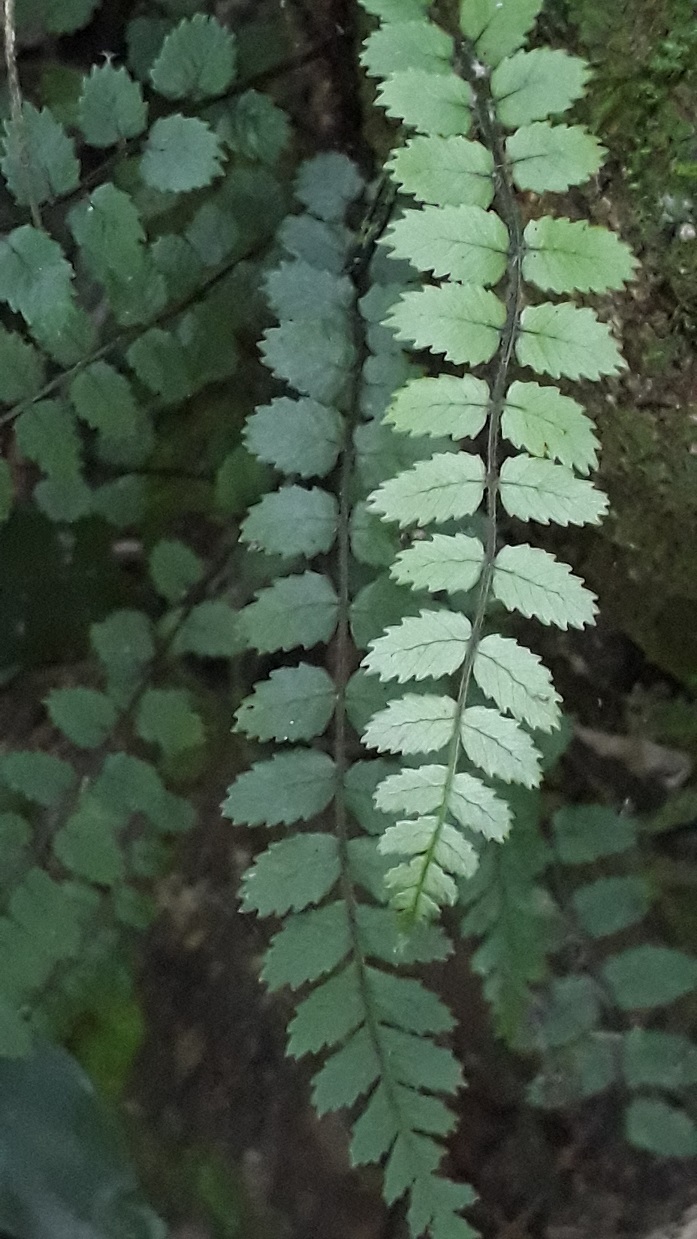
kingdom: Plantae
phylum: Tracheophyta
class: Polypodiopsida
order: Polypodiales
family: Blechnaceae
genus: Icarus
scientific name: Icarus filiformis
